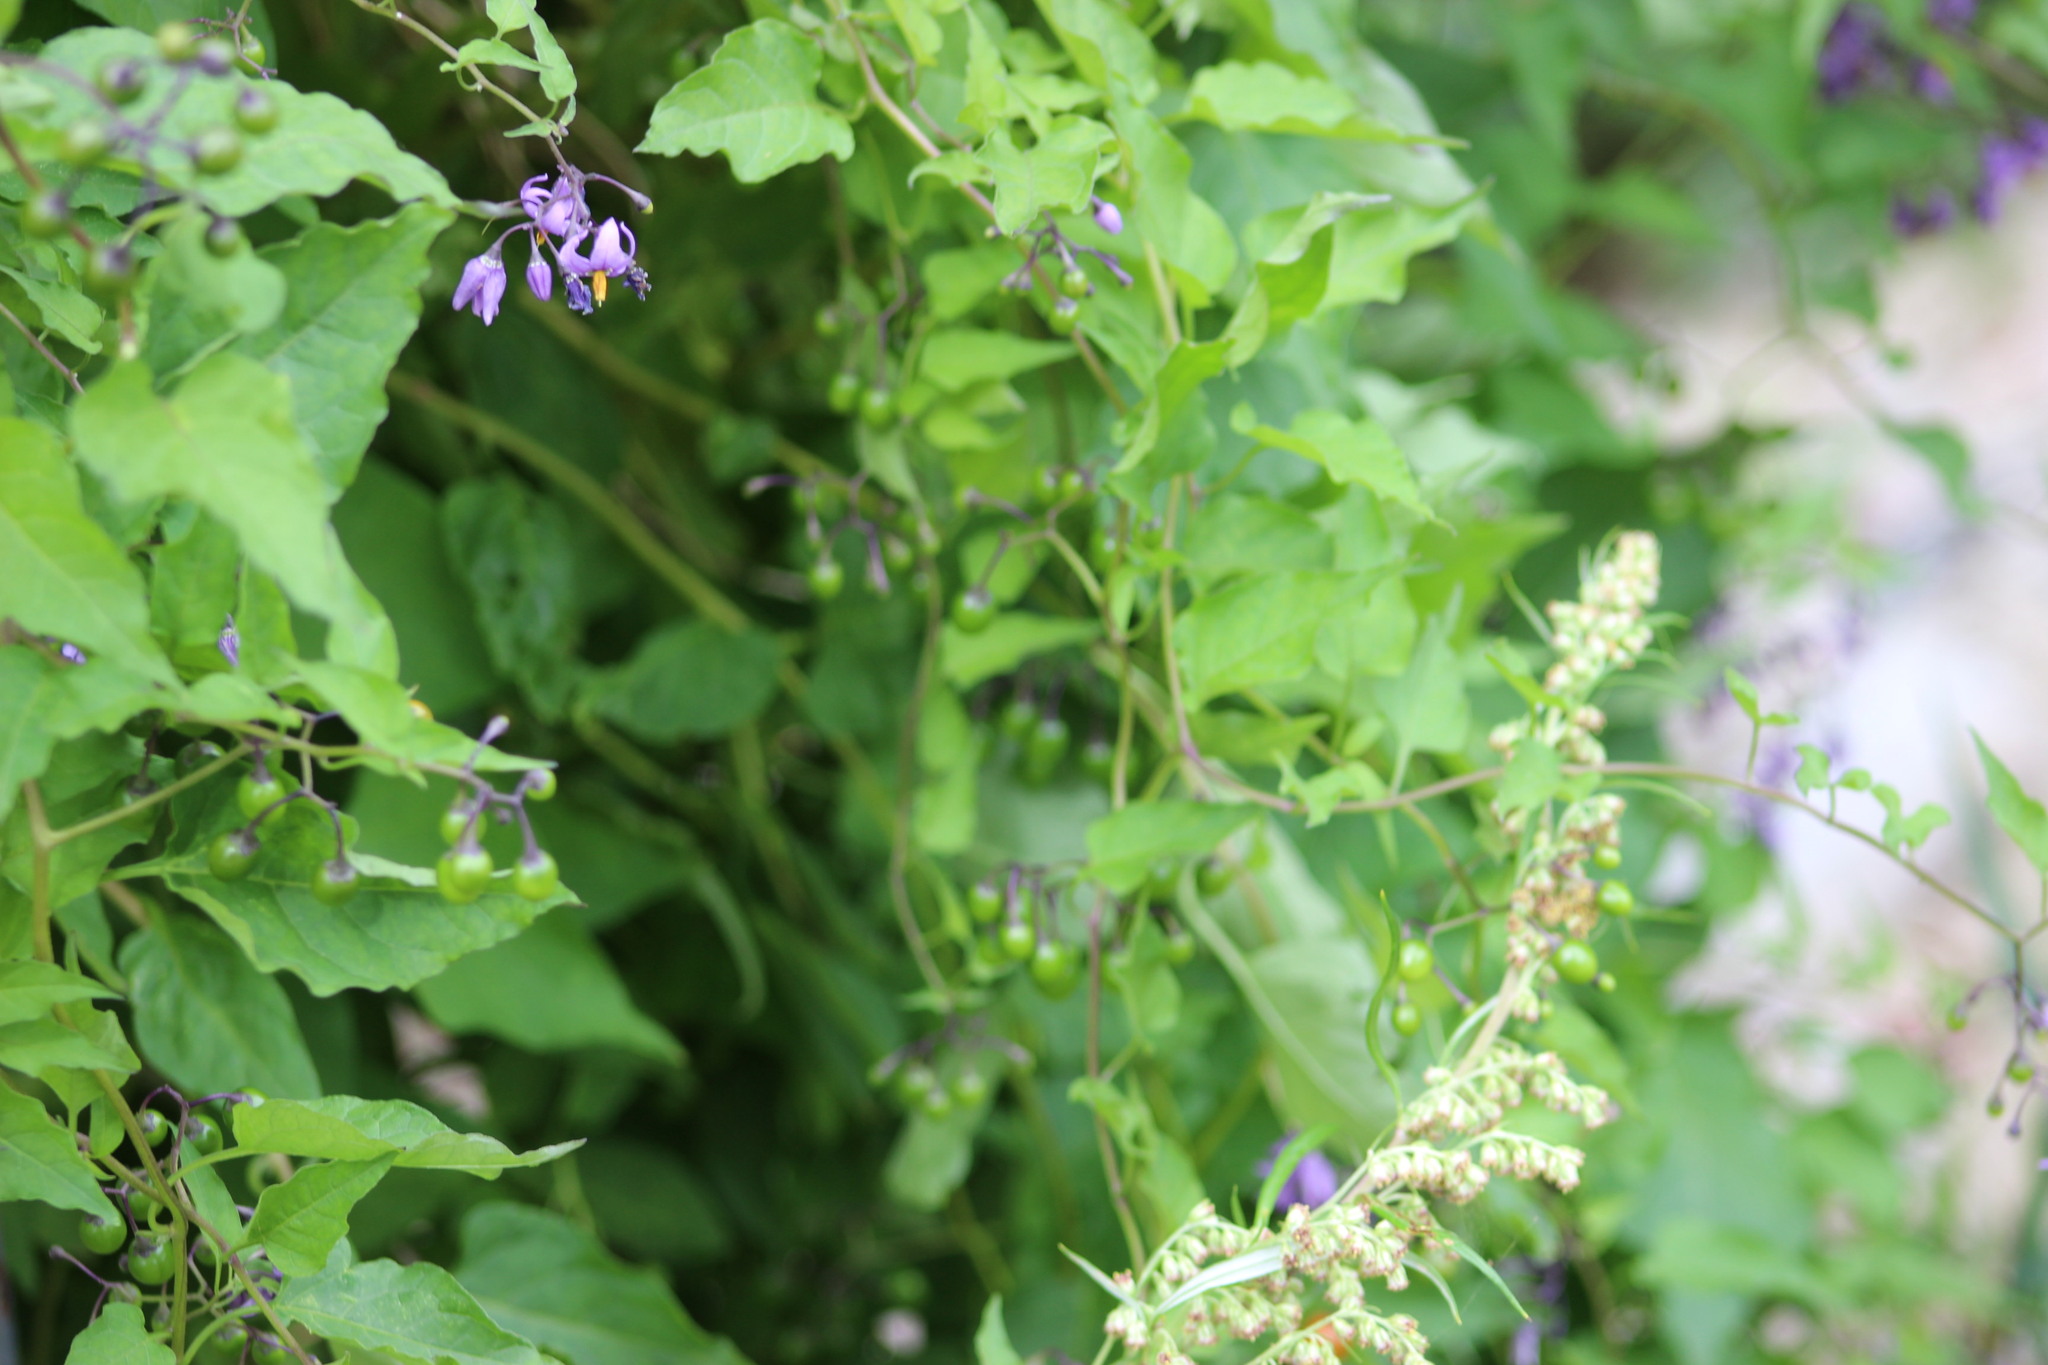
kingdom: Plantae
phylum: Tracheophyta
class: Magnoliopsida
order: Solanales
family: Solanaceae
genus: Solanum
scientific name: Solanum dulcamara
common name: Climbing nightshade
